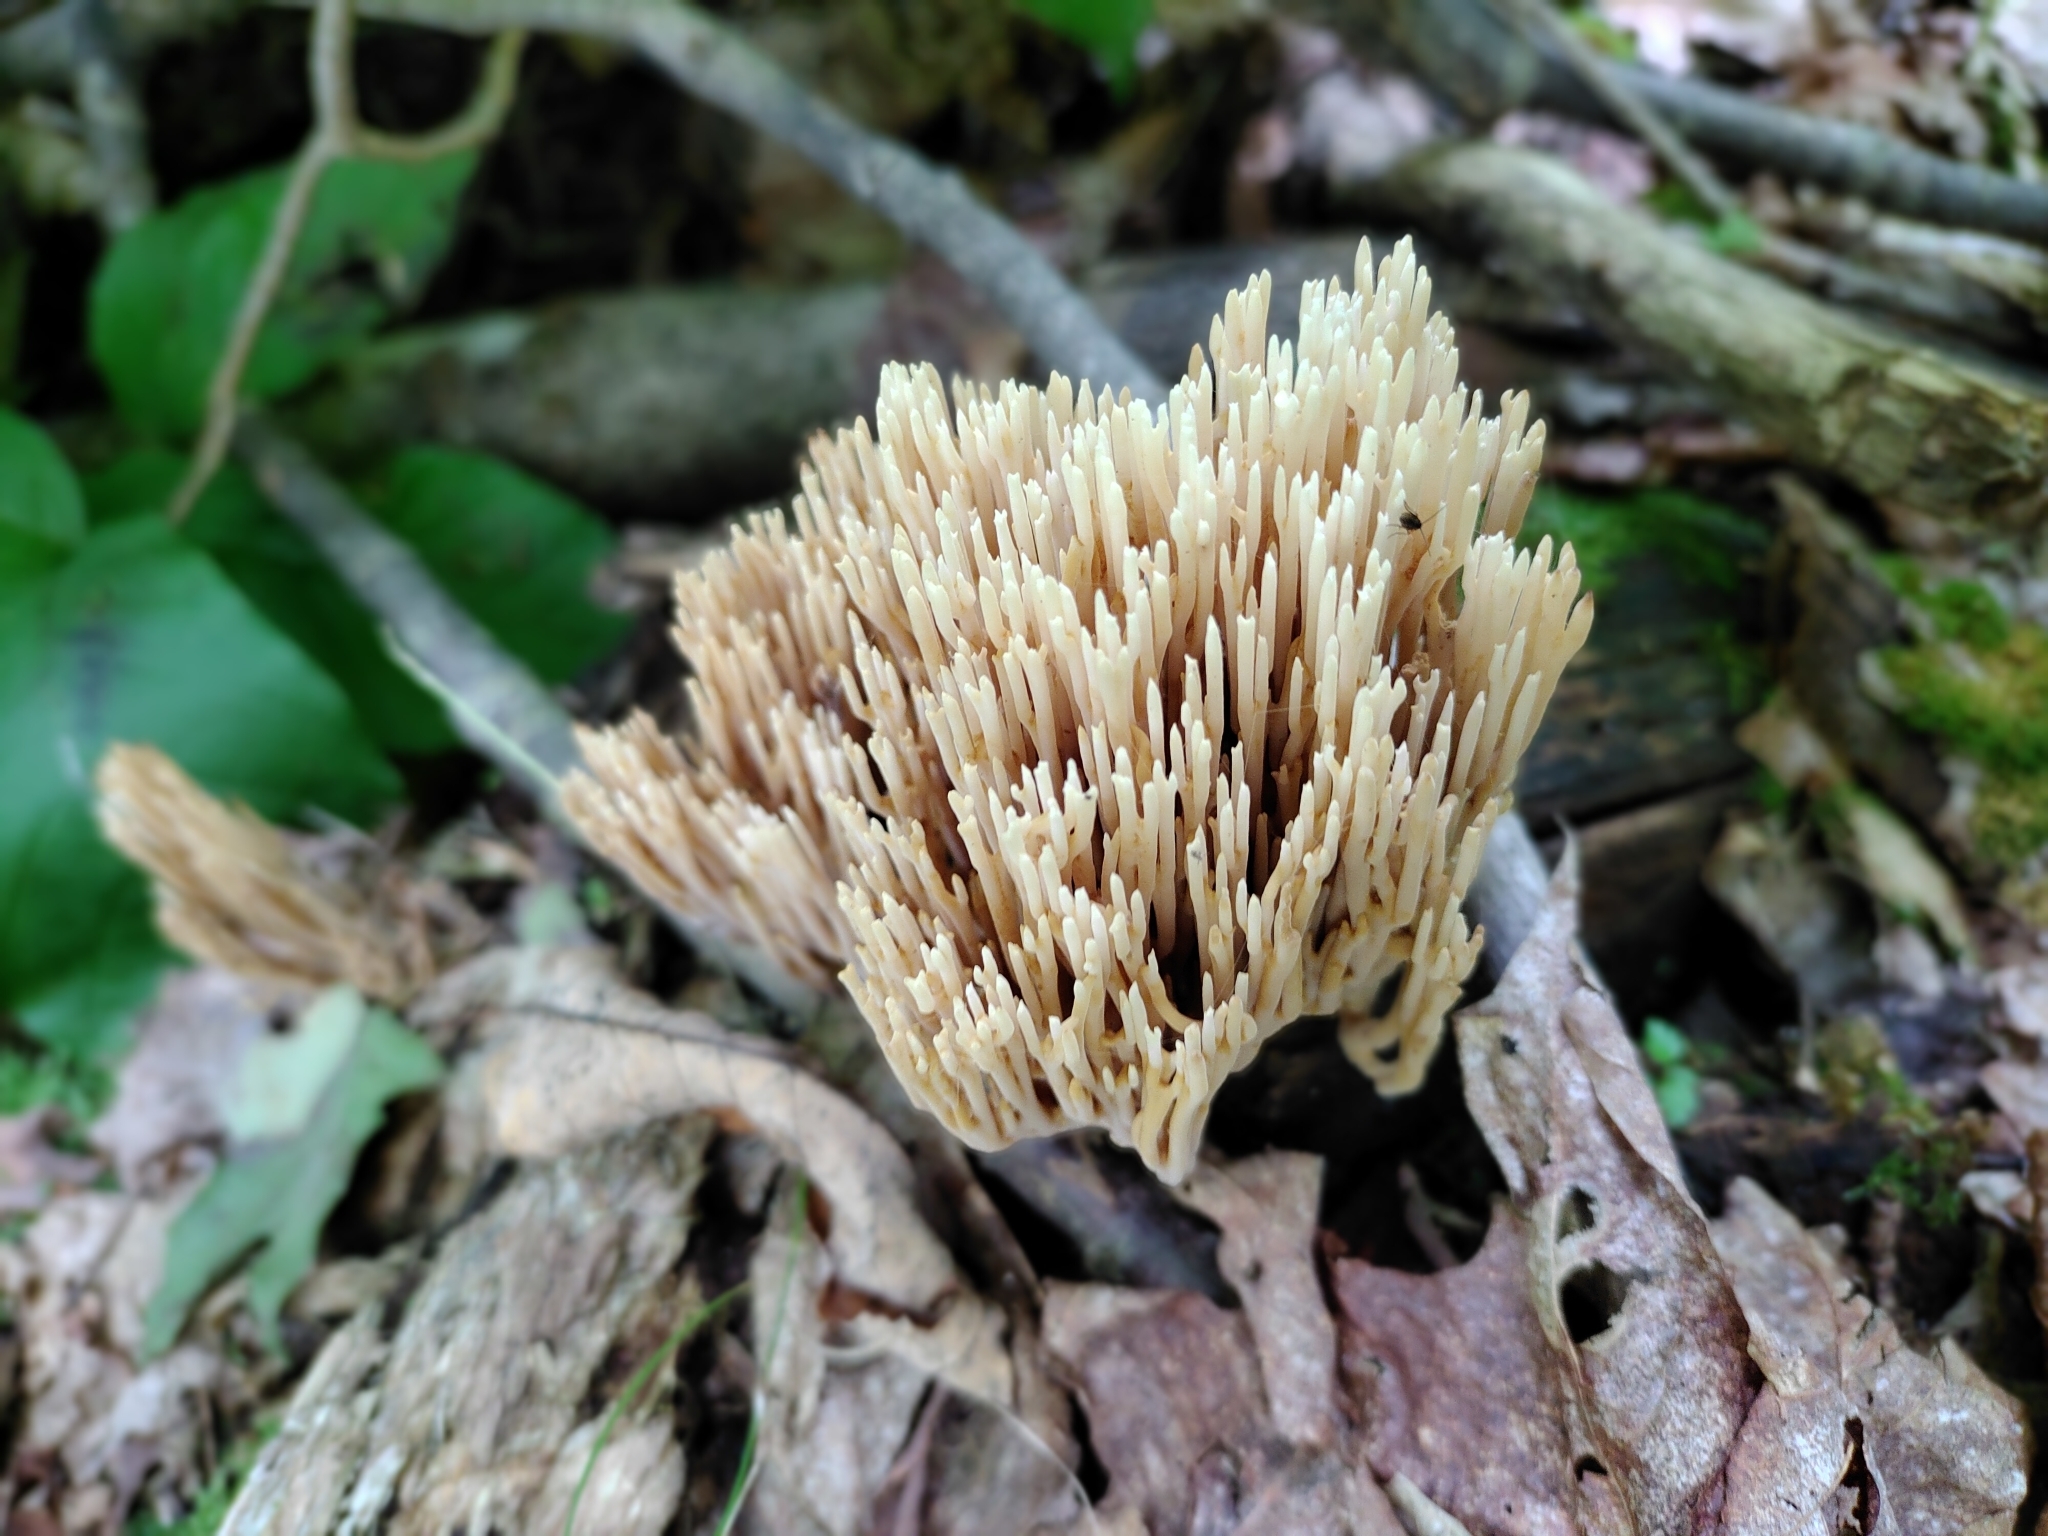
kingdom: Fungi
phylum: Basidiomycota
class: Agaricomycetes
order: Gomphales
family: Gomphaceae
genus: Ramaria
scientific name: Ramaria stricta
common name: Upright coral
